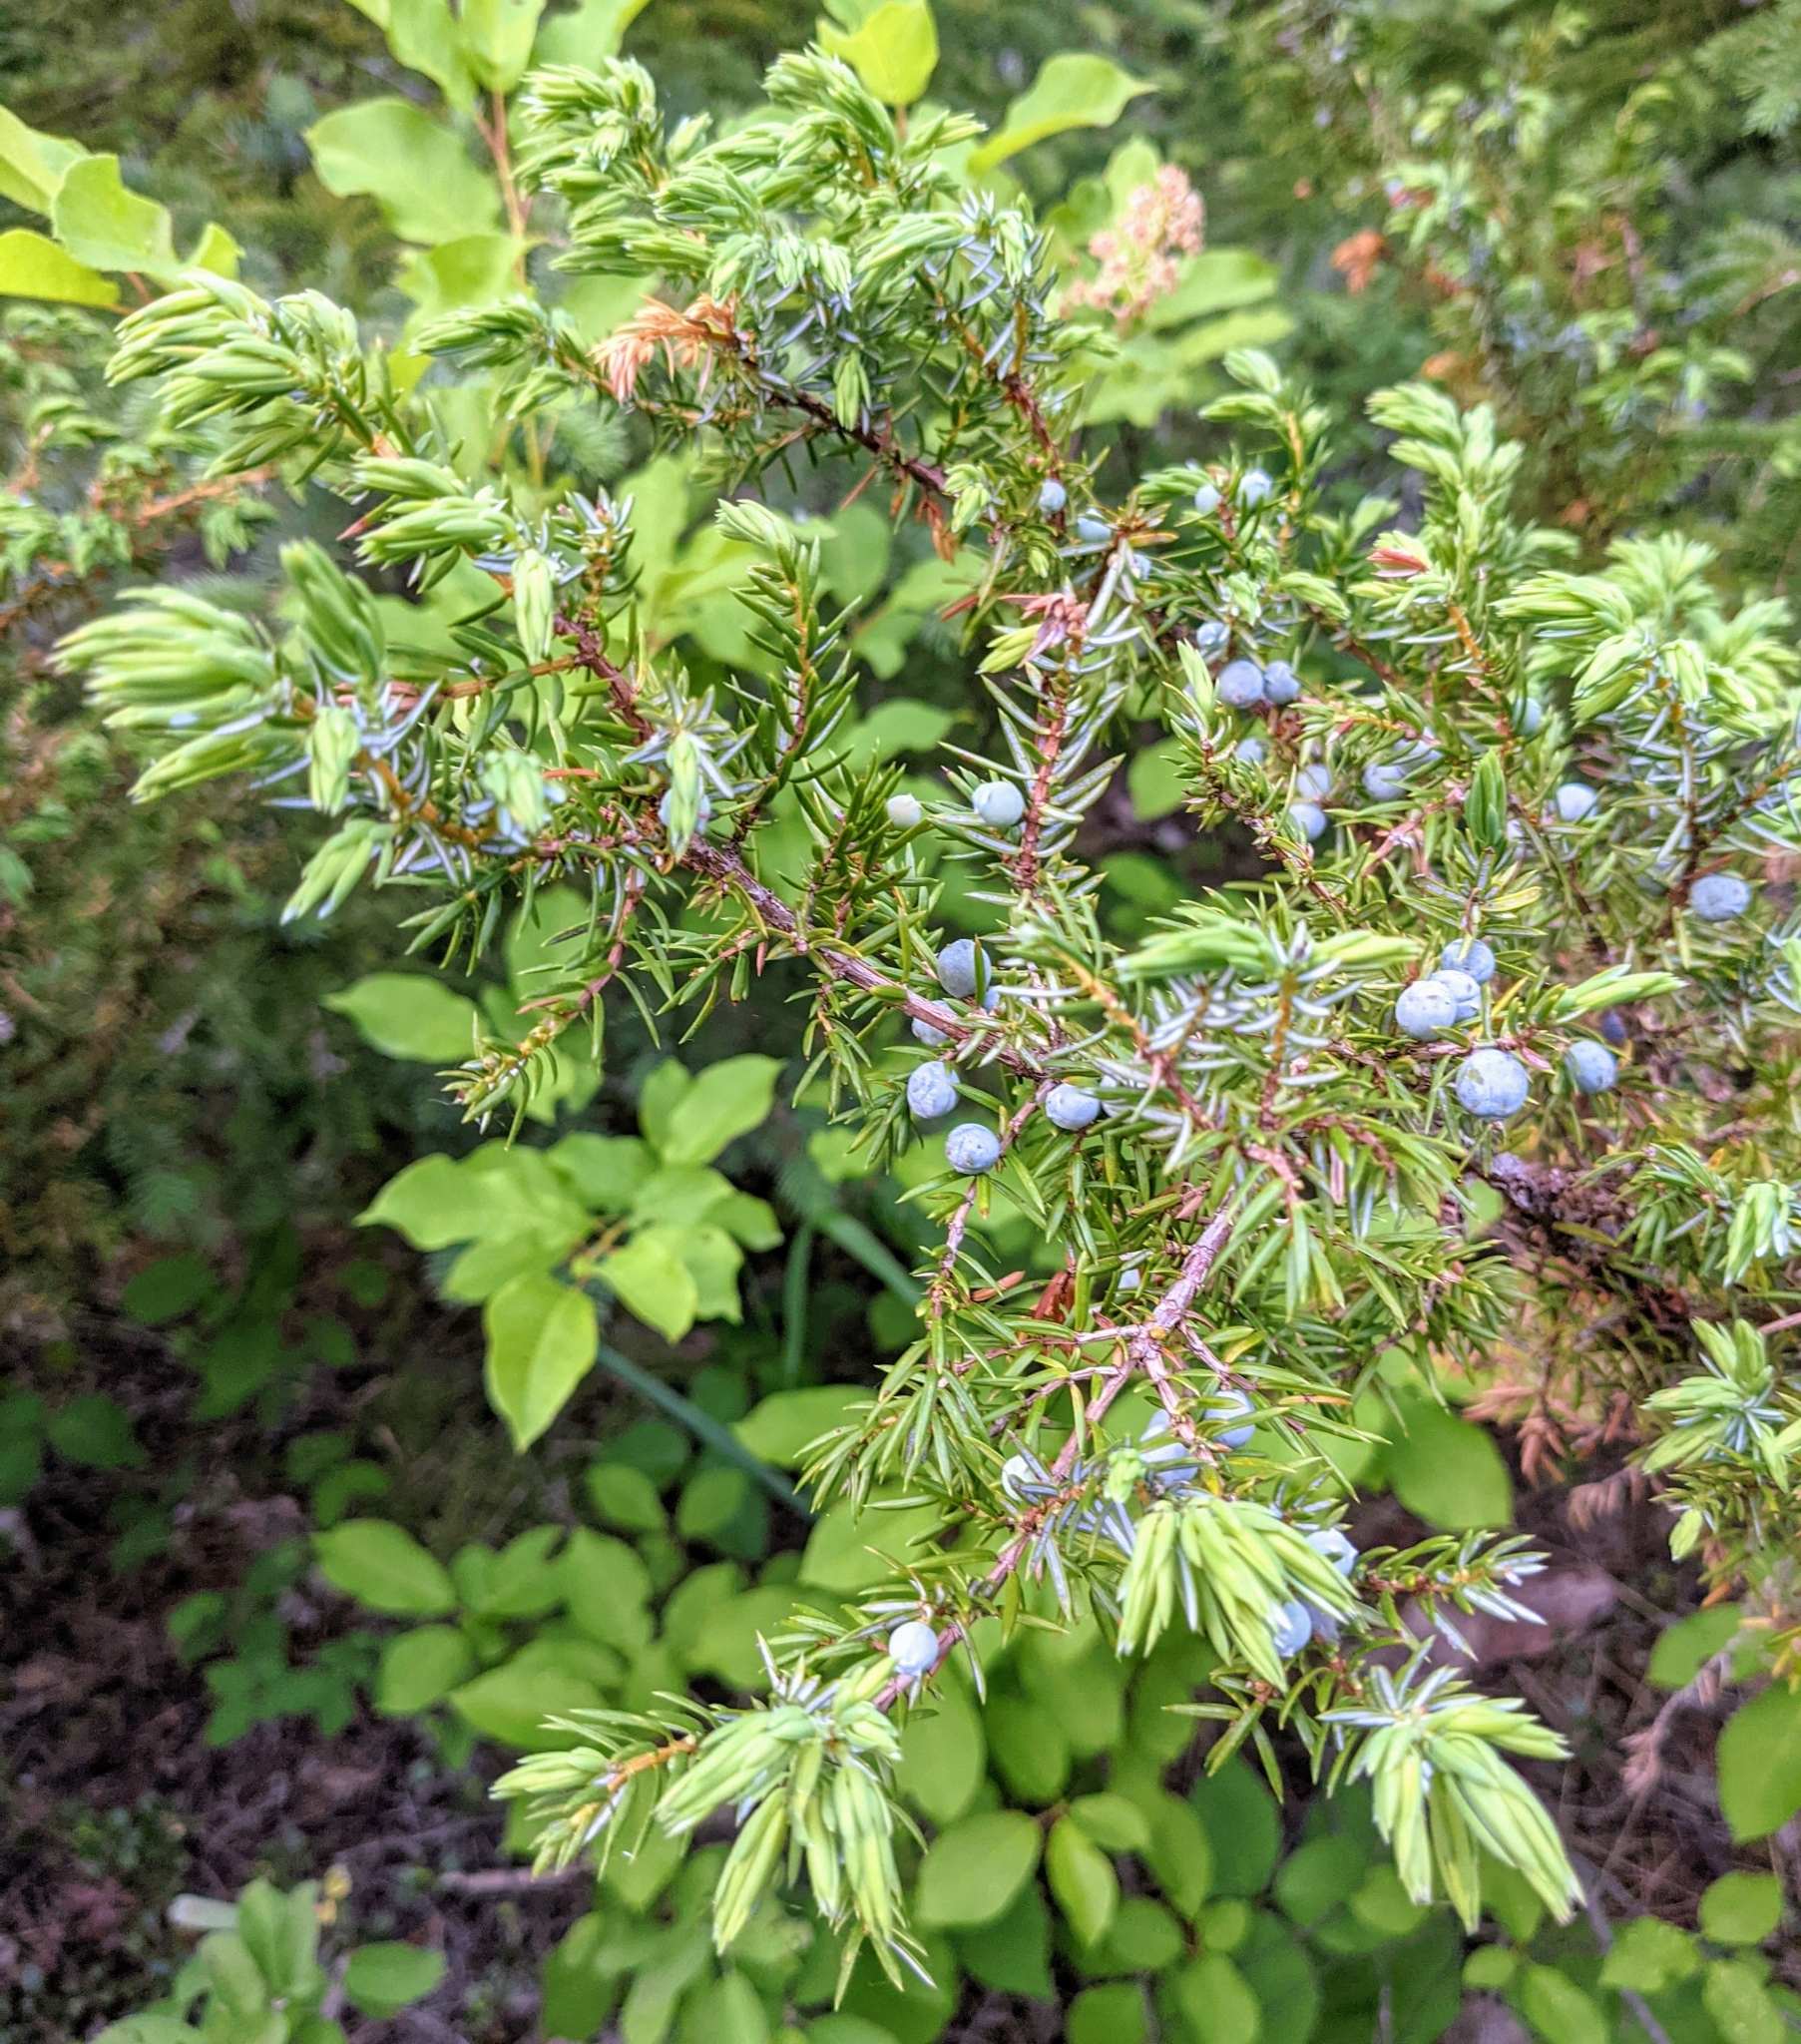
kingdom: Plantae
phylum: Tracheophyta
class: Pinopsida
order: Pinales
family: Cupressaceae
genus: Juniperus
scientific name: Juniperus communis
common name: Common juniper
